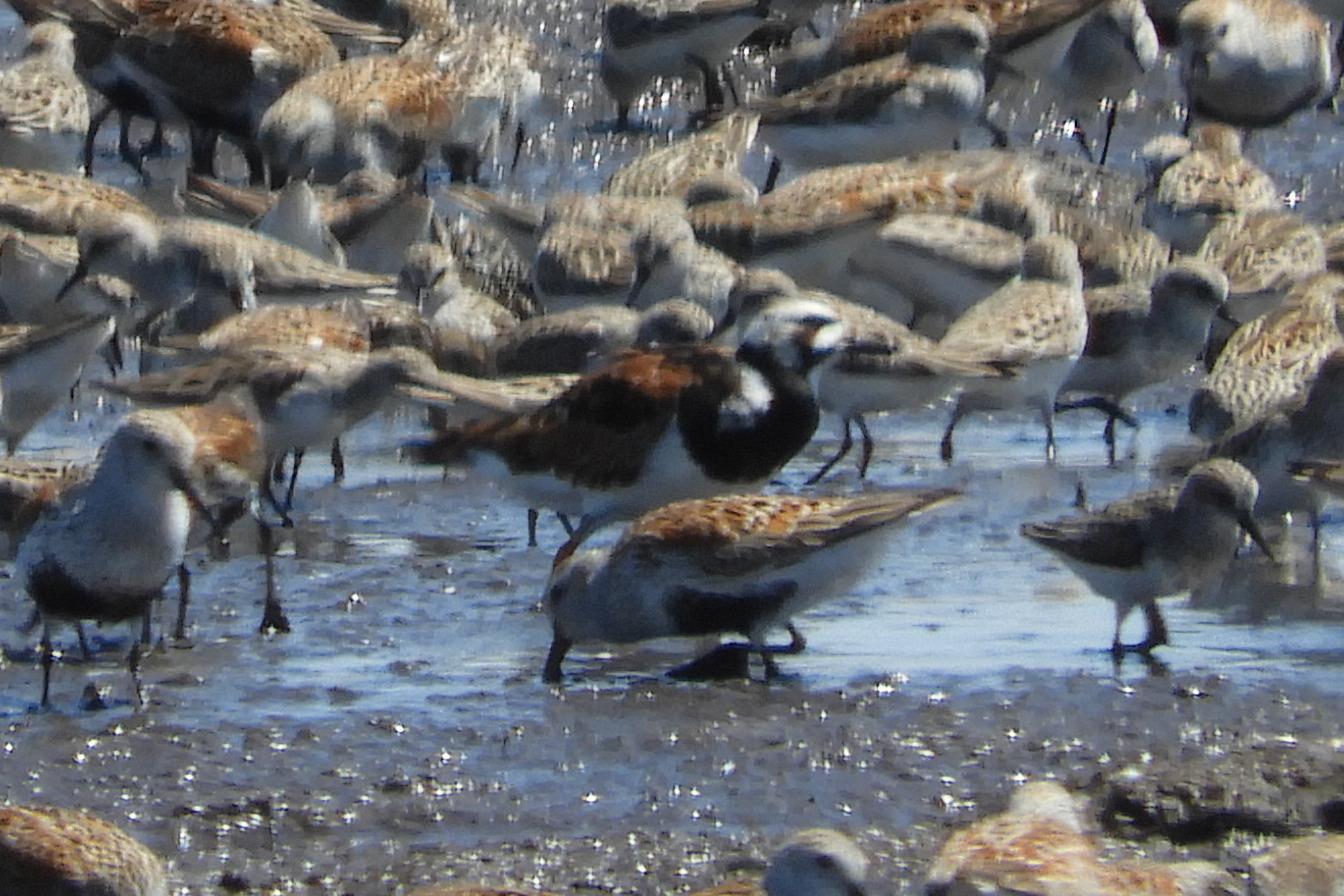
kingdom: Animalia
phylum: Chordata
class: Aves
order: Charadriiformes
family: Scolopacidae
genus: Arenaria
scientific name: Arenaria interpres
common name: Ruddy turnstone
